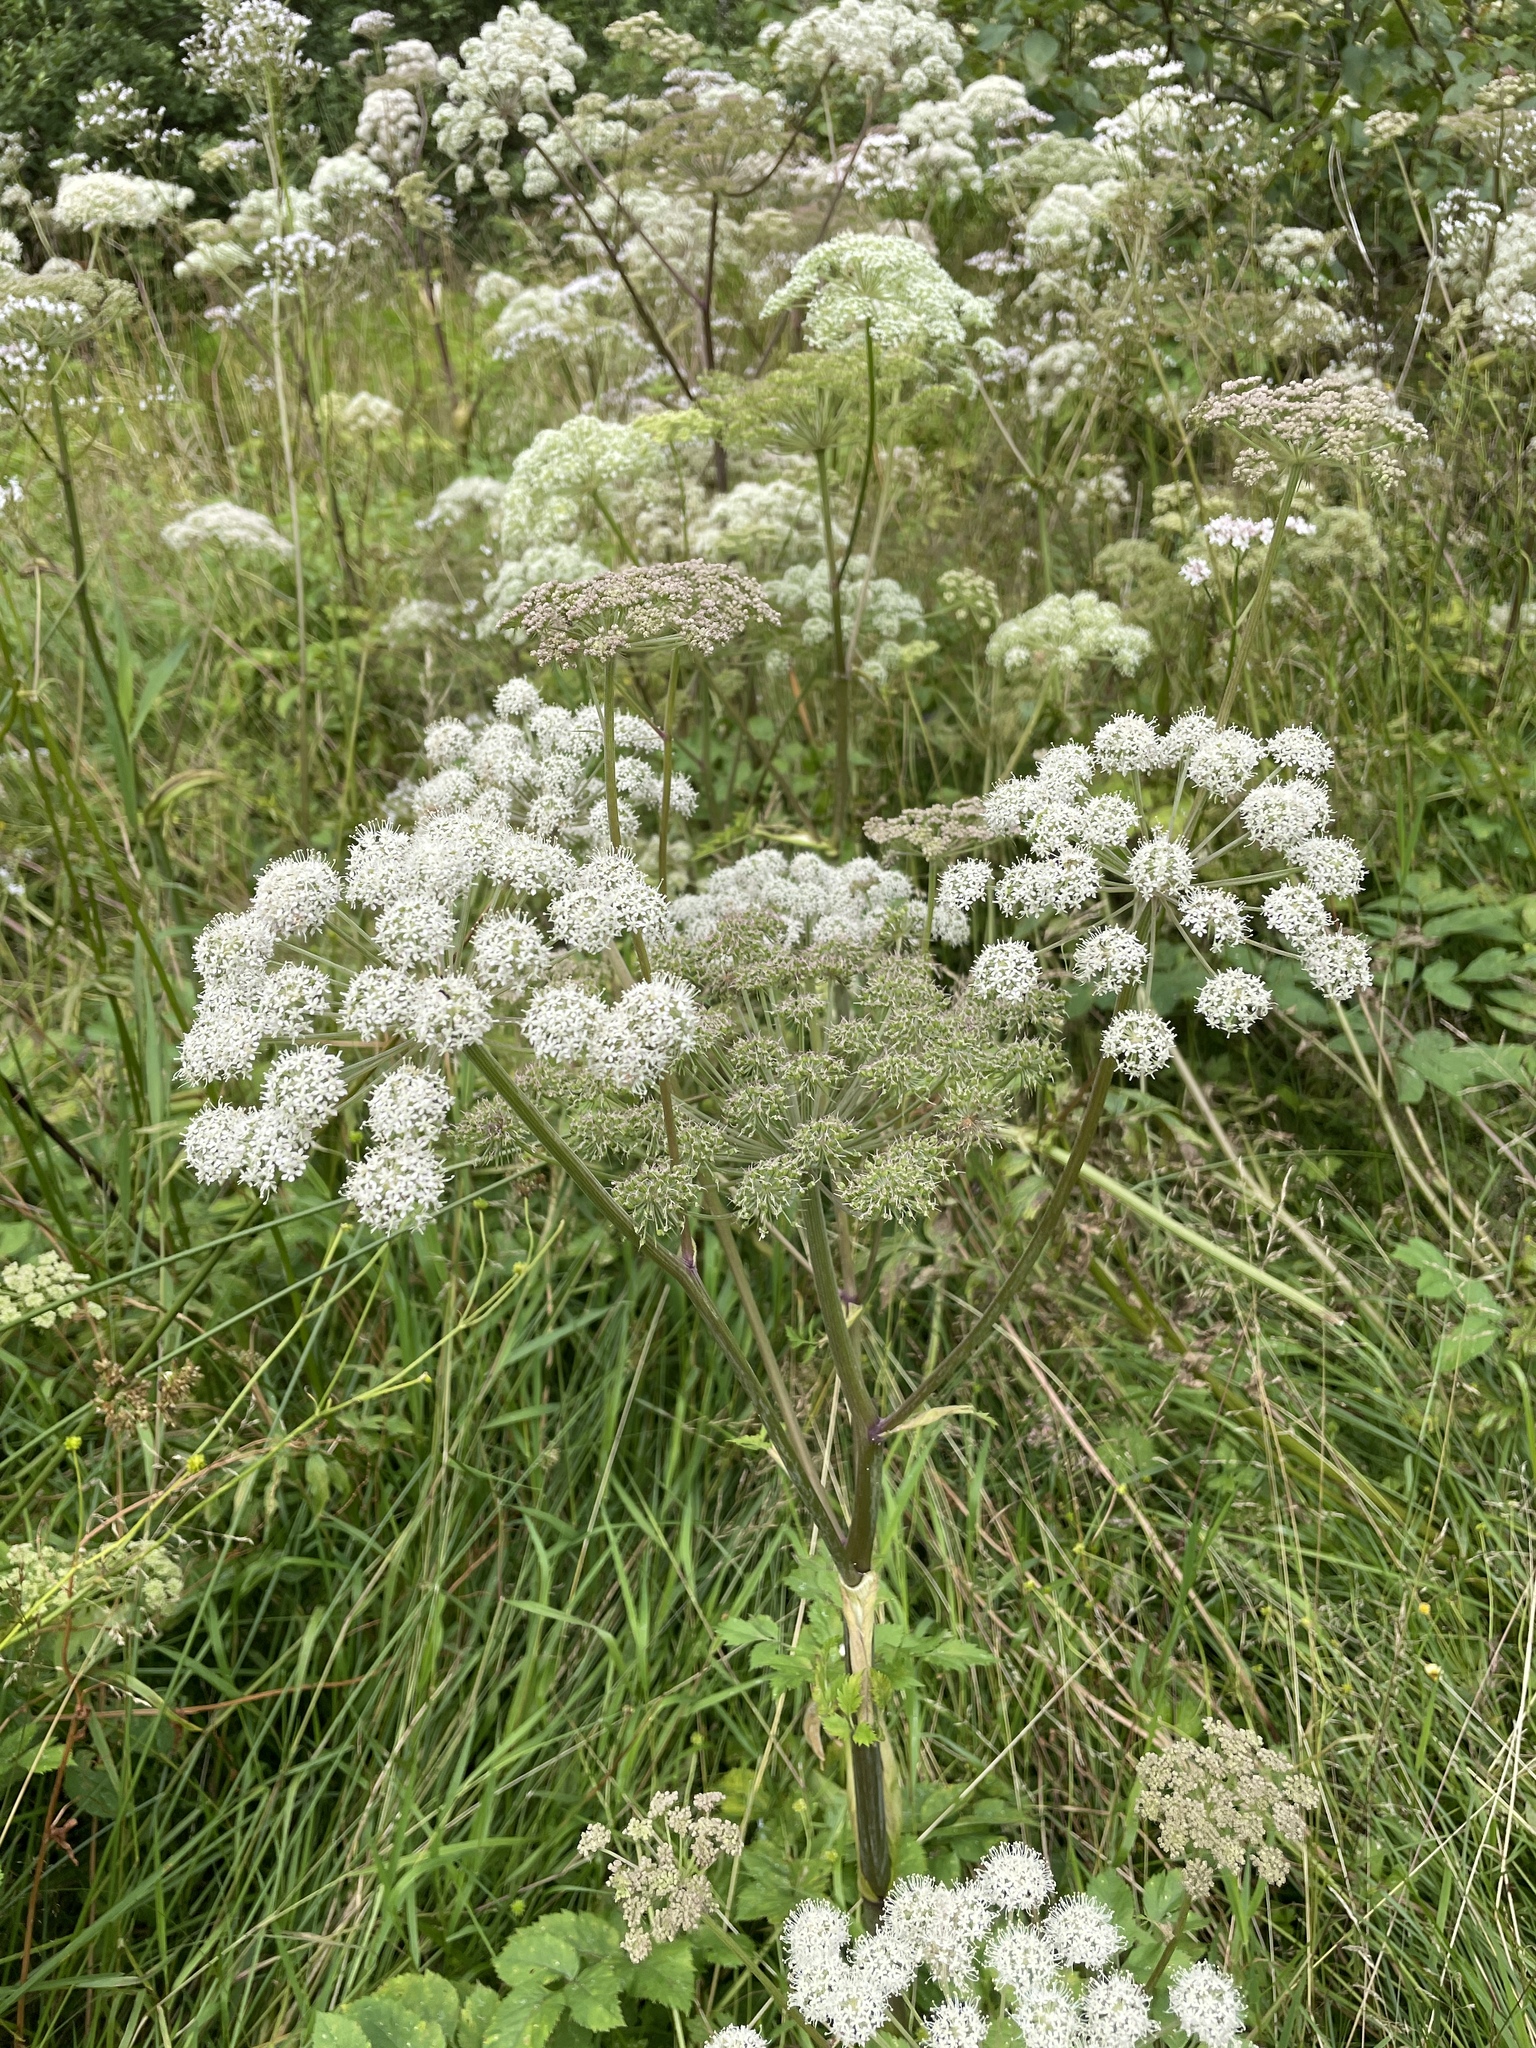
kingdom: Plantae
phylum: Tracheophyta
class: Magnoliopsida
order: Apiales
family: Apiaceae
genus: Angelica
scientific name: Angelica sylvestris
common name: Wild angelica
